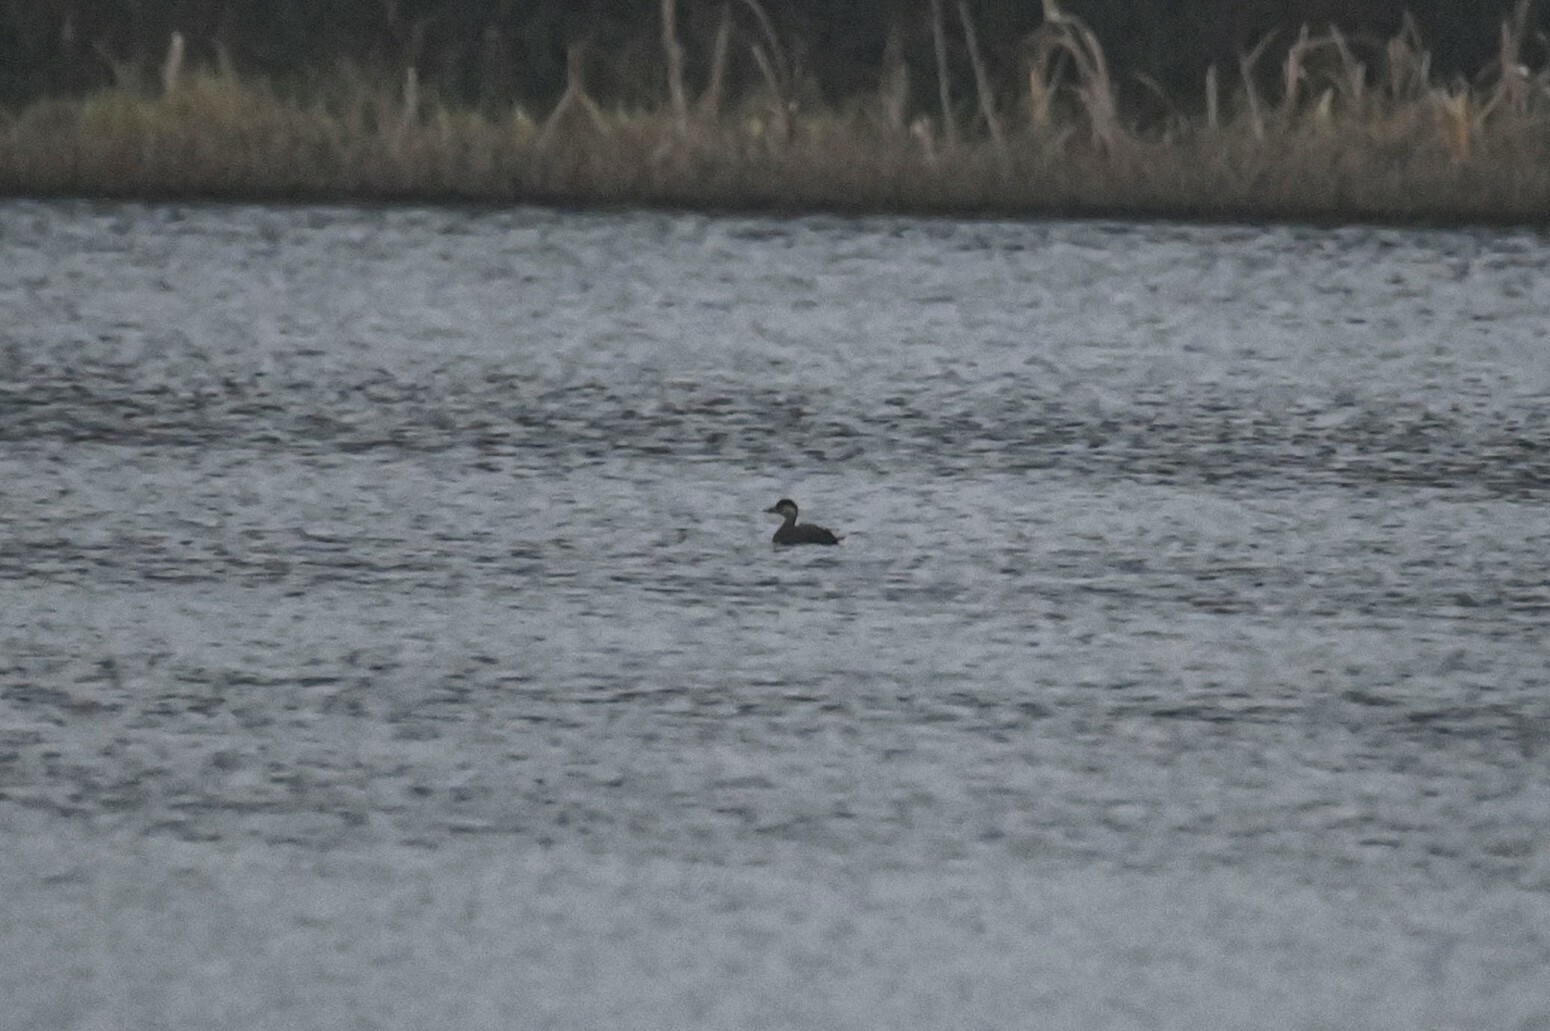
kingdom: Animalia
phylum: Chordata
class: Aves
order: Anseriformes
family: Anatidae
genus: Melanitta
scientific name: Melanitta nigra
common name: Common scoter
